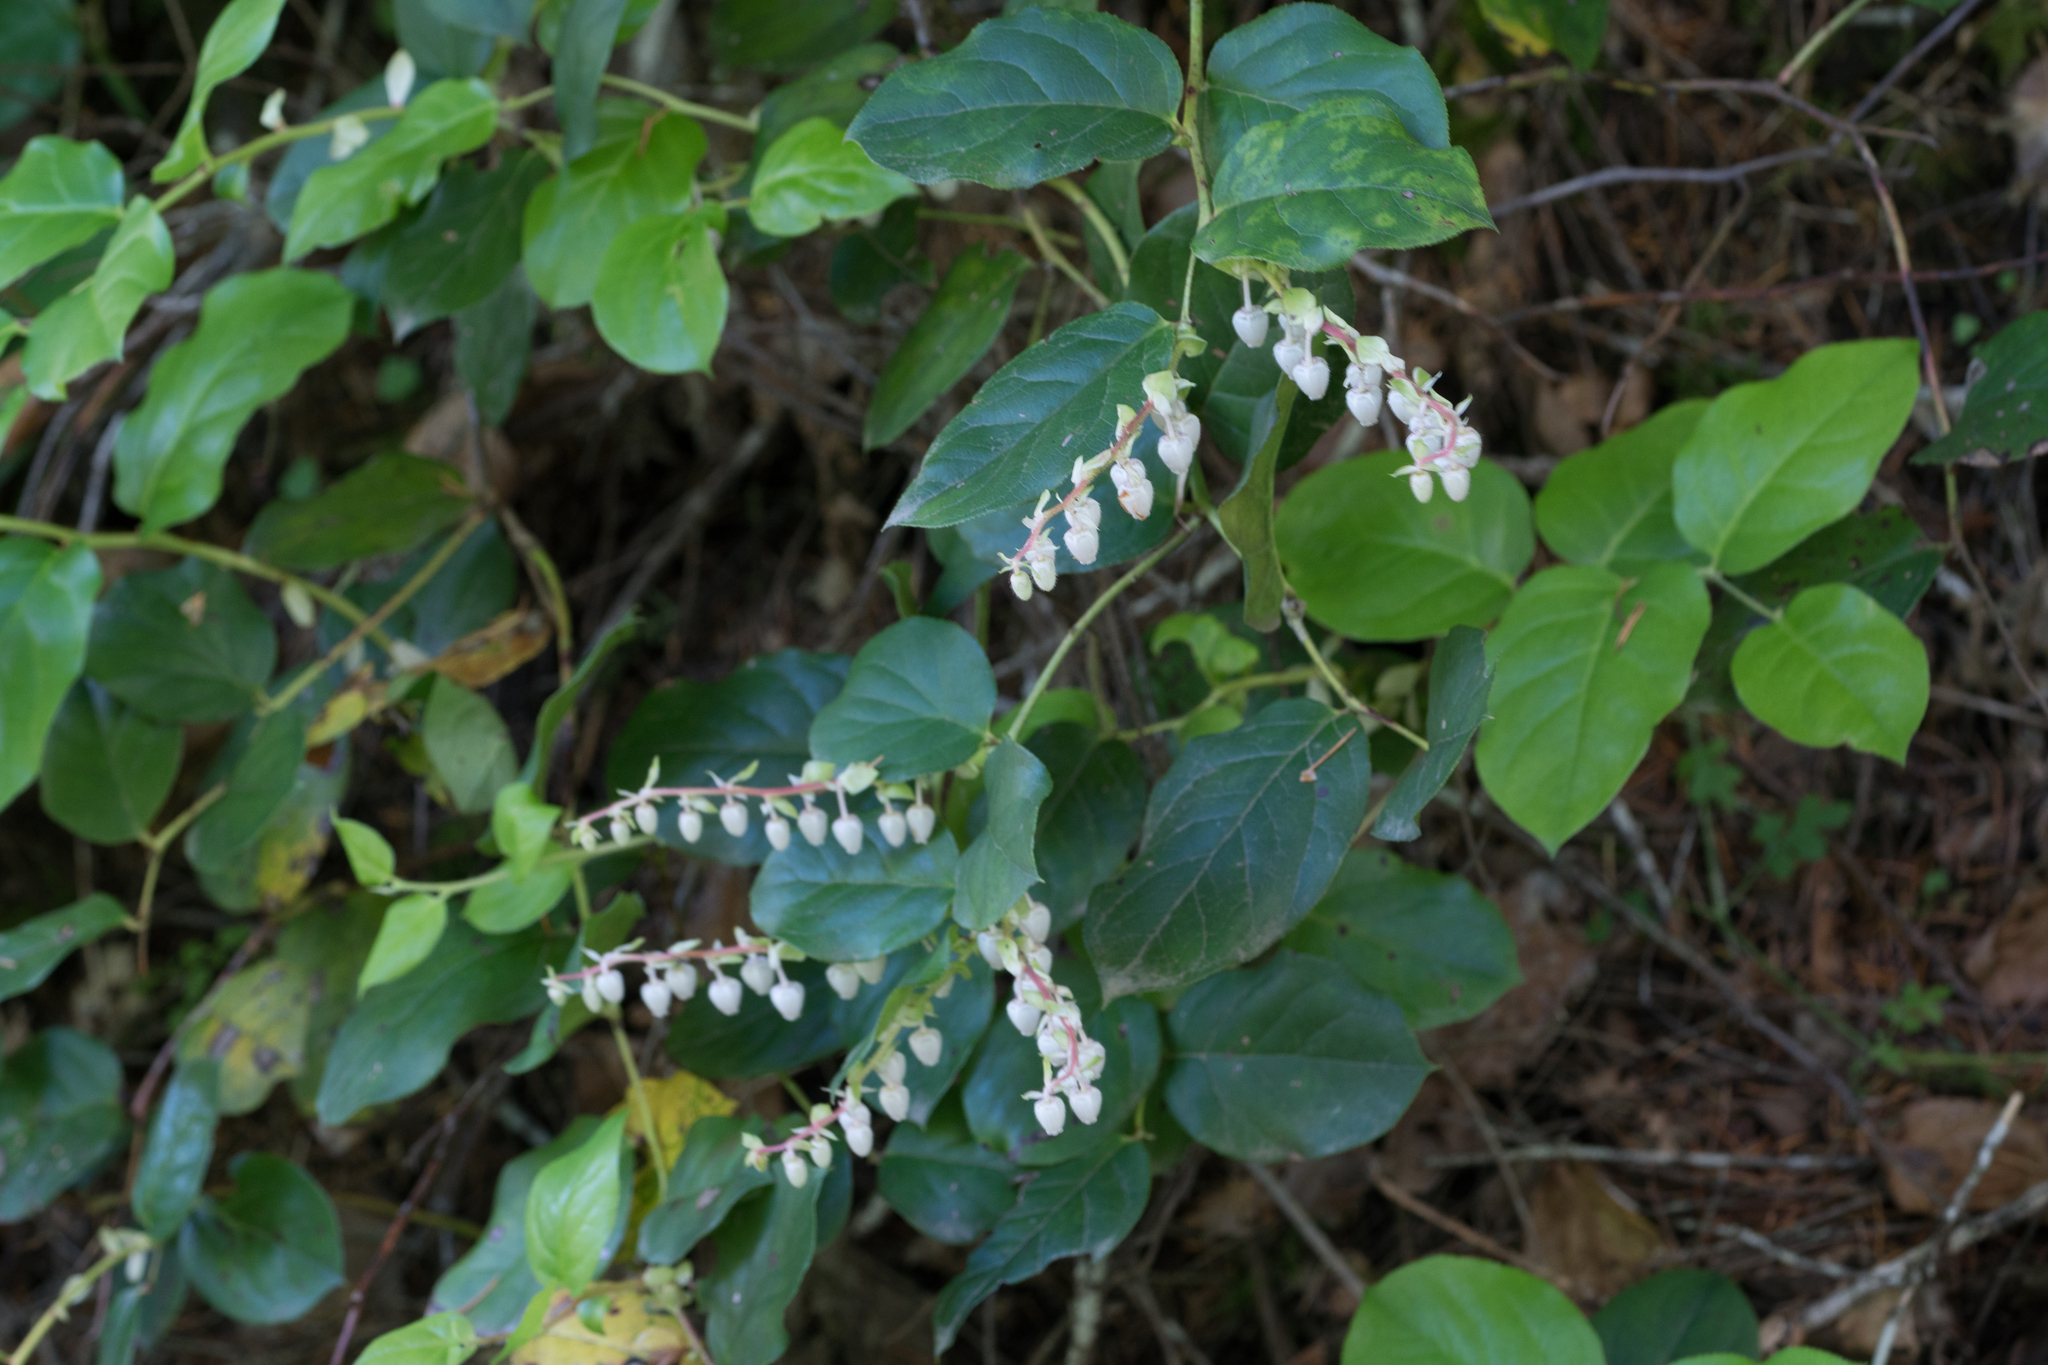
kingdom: Plantae
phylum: Tracheophyta
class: Magnoliopsida
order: Ericales
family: Ericaceae
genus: Gaultheria
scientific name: Gaultheria shallon
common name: Shallon
